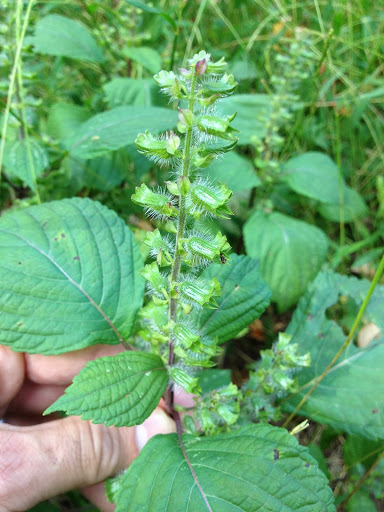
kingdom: Plantae
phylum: Tracheophyta
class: Magnoliopsida
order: Lamiales
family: Lamiaceae
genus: Perilla
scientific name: Perilla frutescens
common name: Perilla
